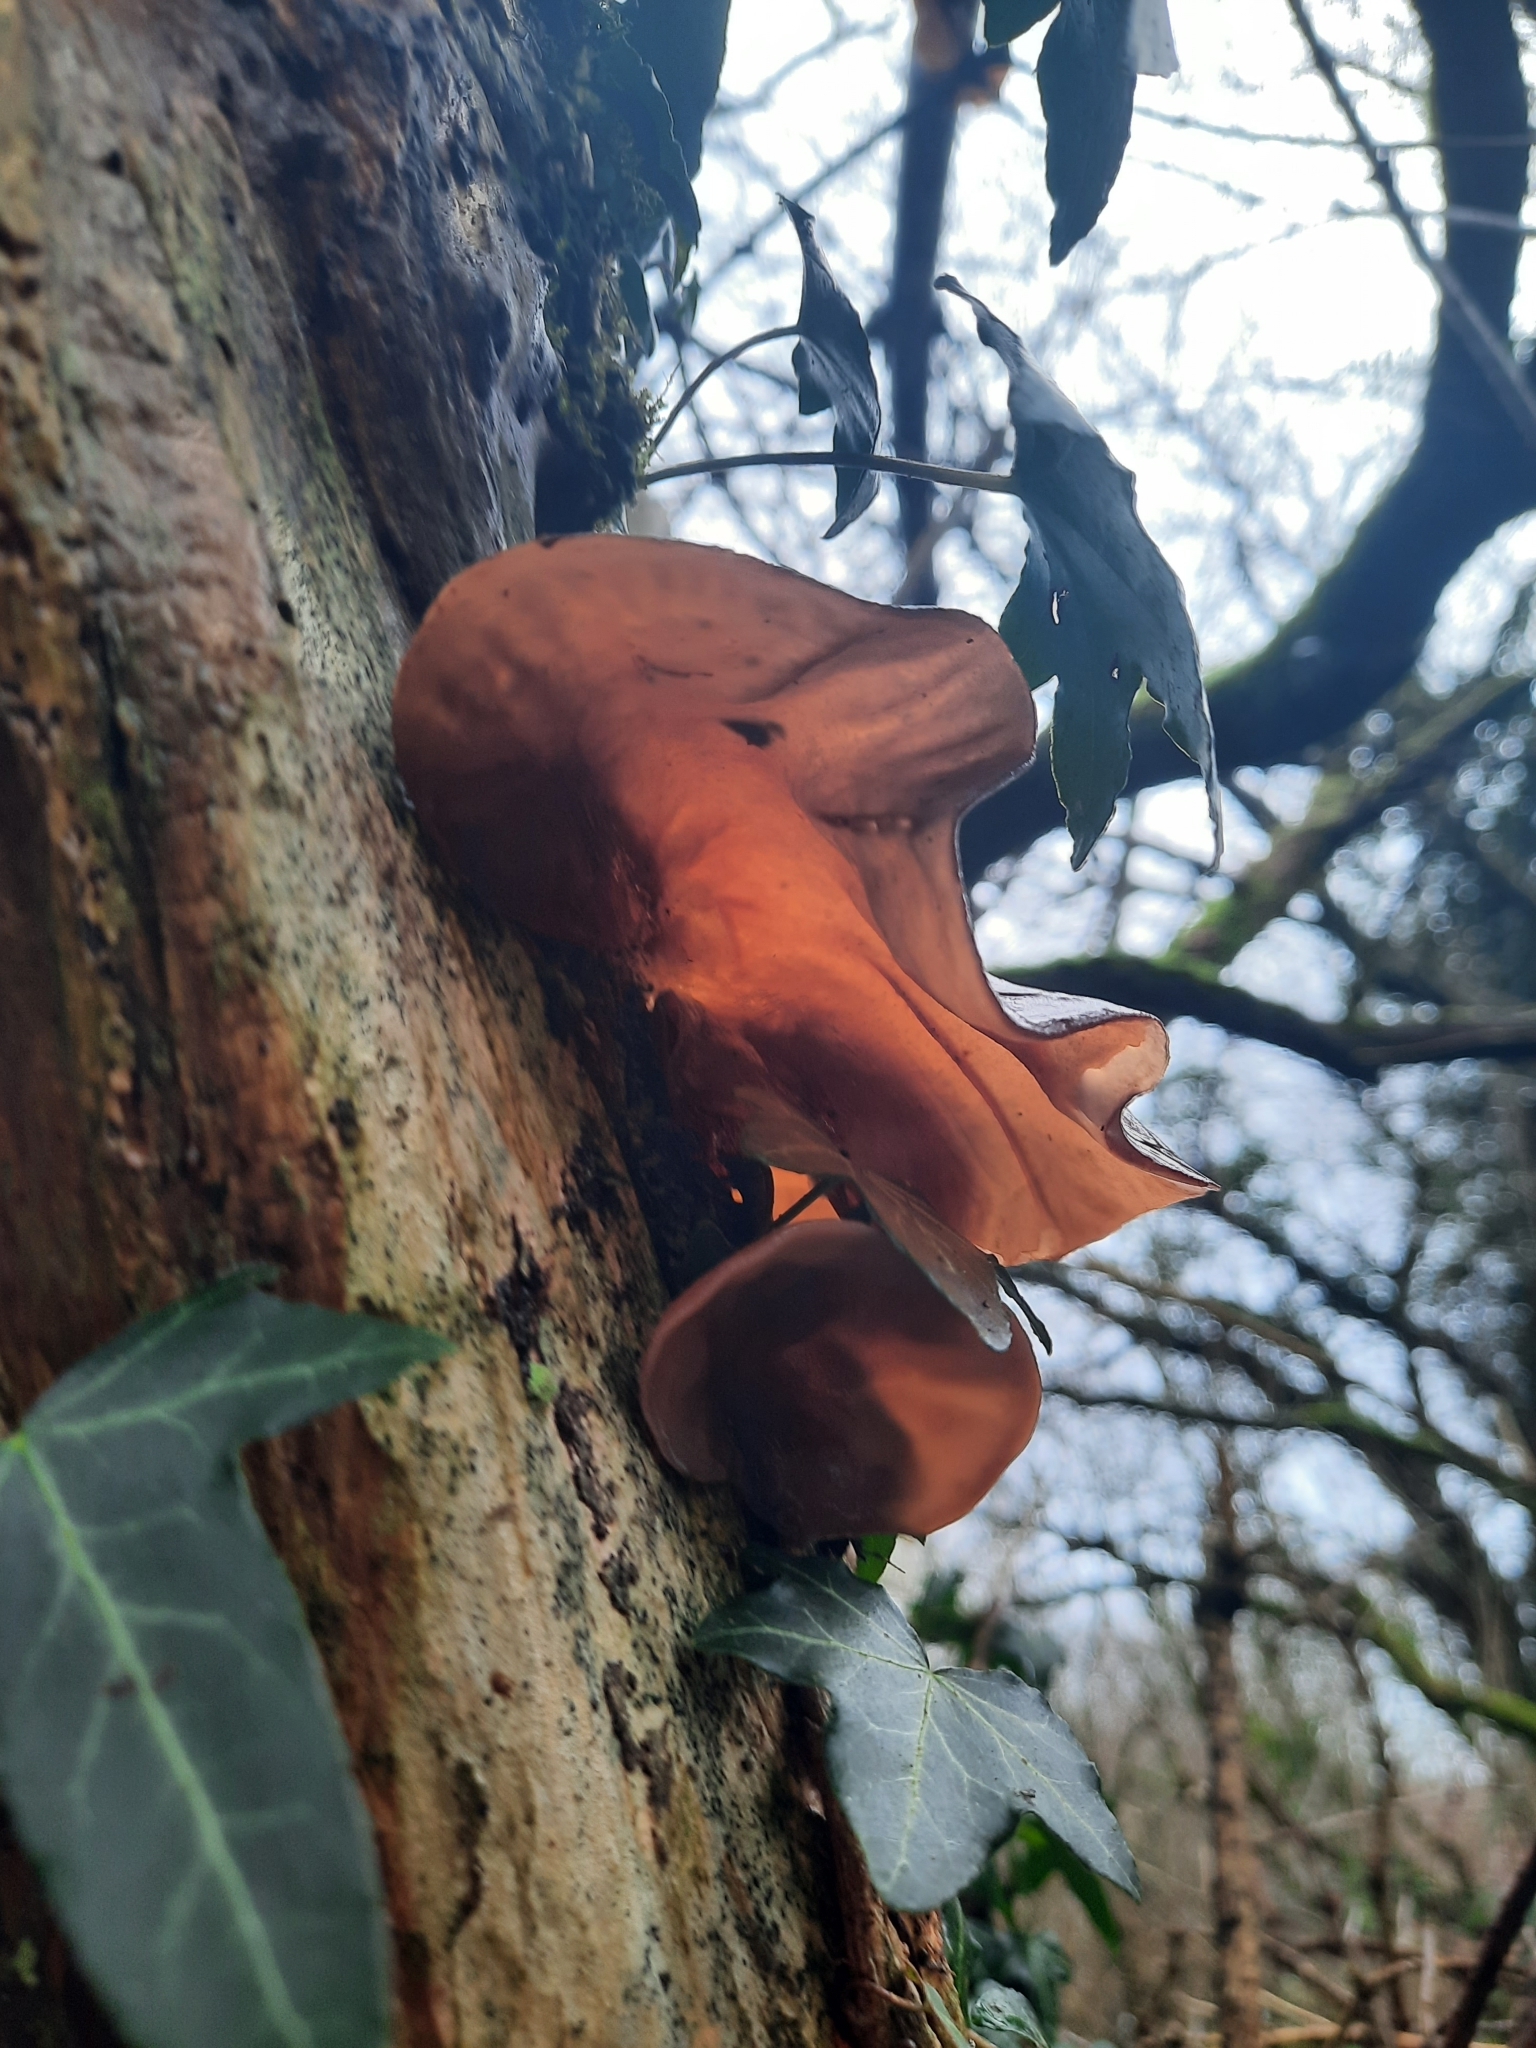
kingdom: Fungi
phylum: Basidiomycota
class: Agaricomycetes
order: Auriculariales
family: Auriculariaceae
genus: Auricularia
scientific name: Auricularia auricula-judae
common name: Jelly ear
